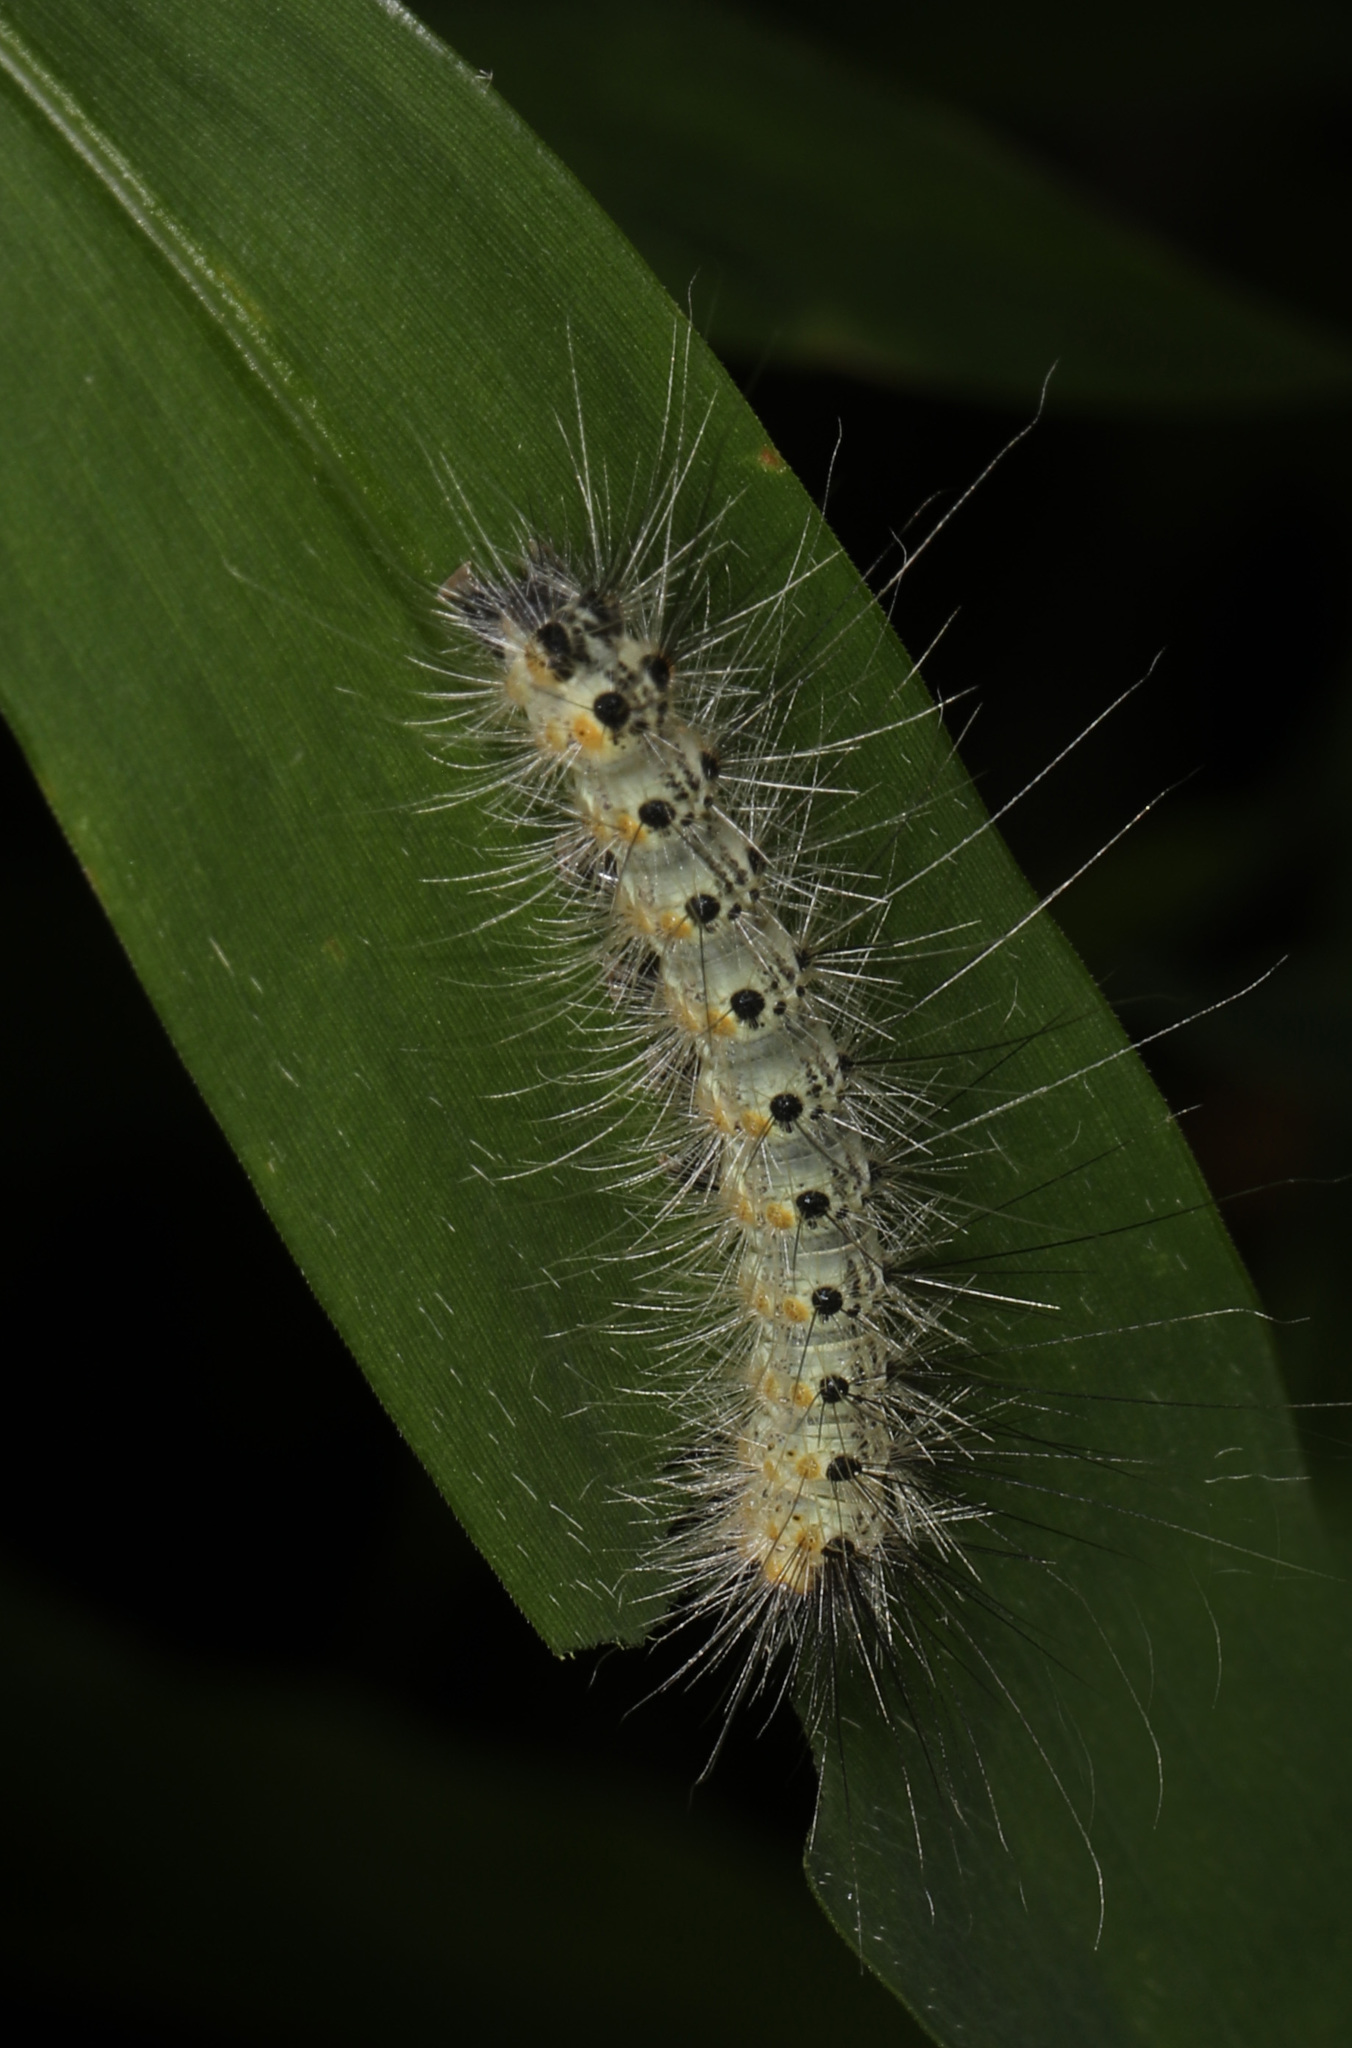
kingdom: Animalia
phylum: Arthropoda
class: Insecta
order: Lepidoptera
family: Erebidae
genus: Hyphantria
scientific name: Hyphantria cunea
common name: American white moth
